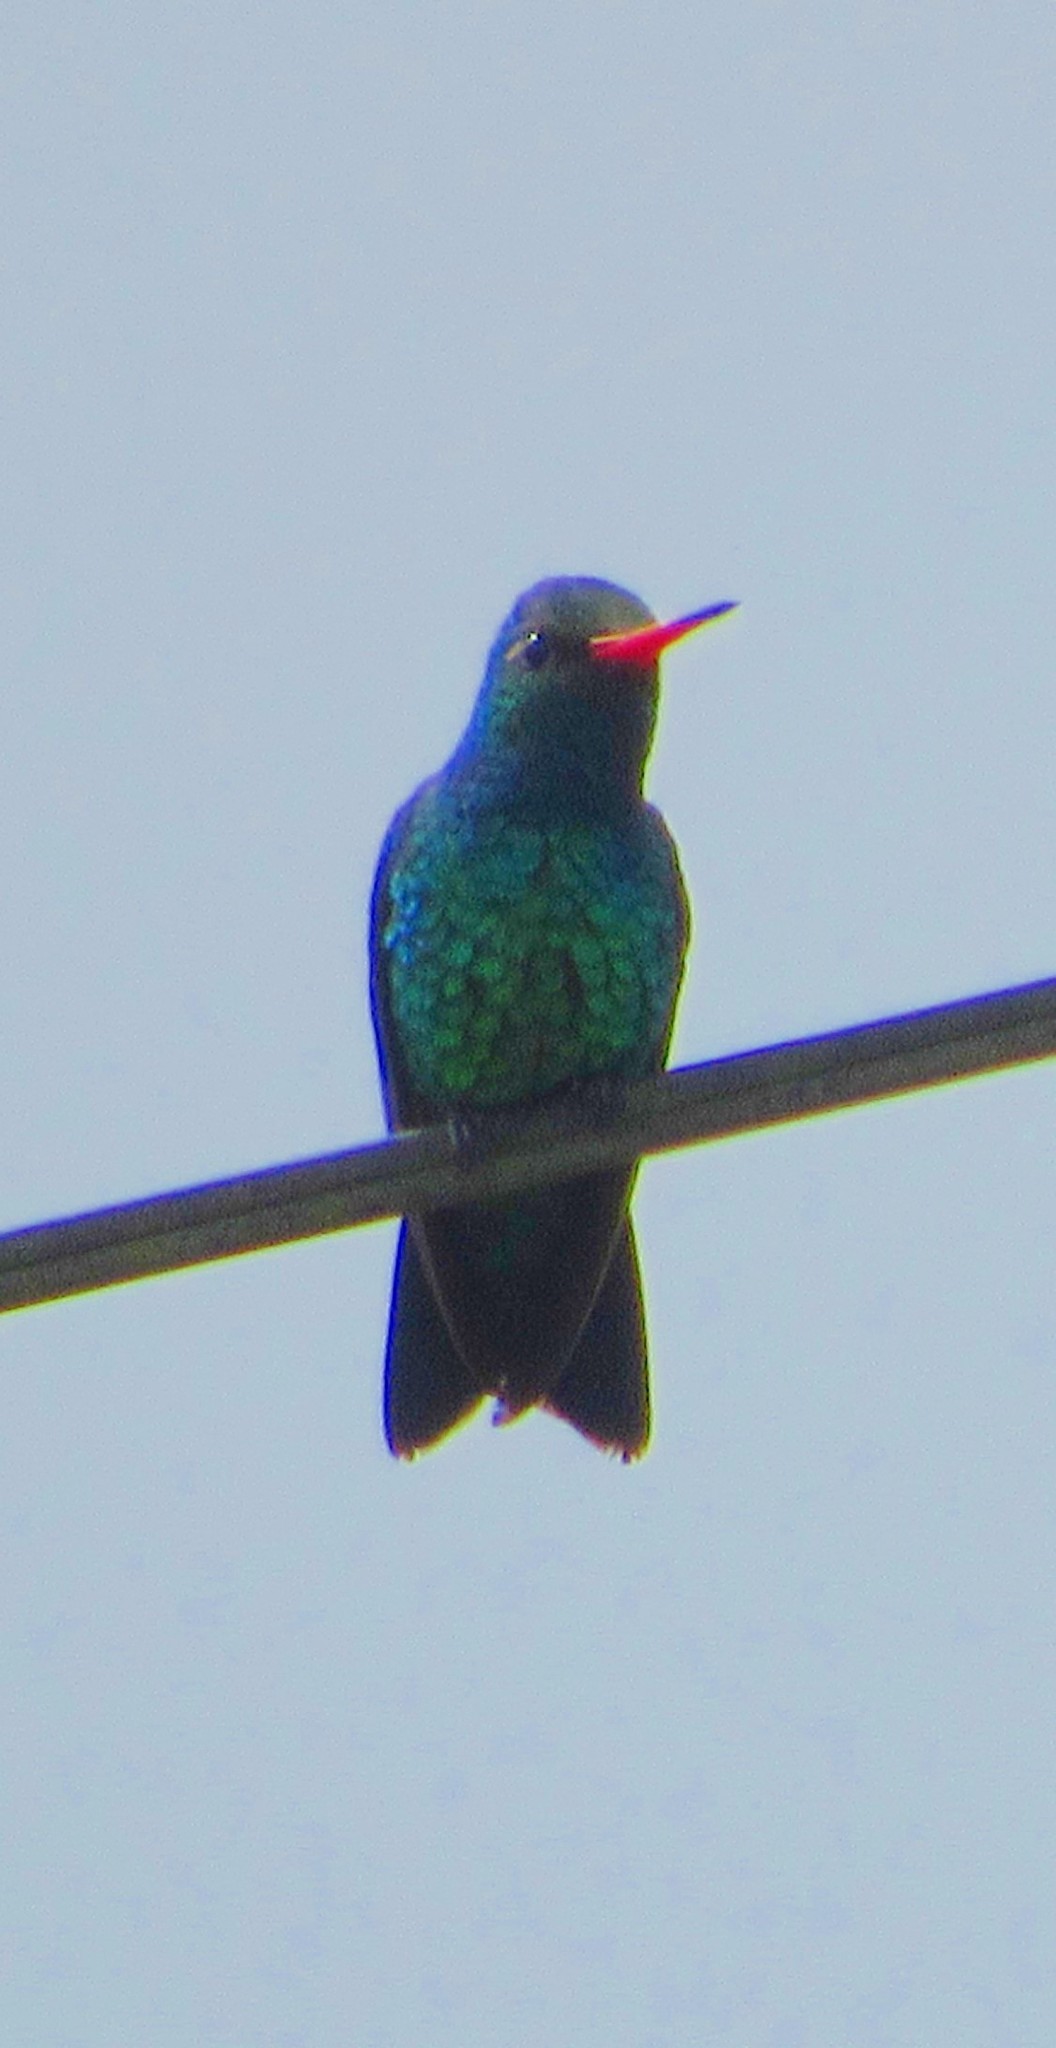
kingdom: Animalia
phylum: Chordata
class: Aves
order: Apodiformes
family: Trochilidae
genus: Chlorostilbon
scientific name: Chlorostilbon lucidus
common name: Glittering-bellied emerald
